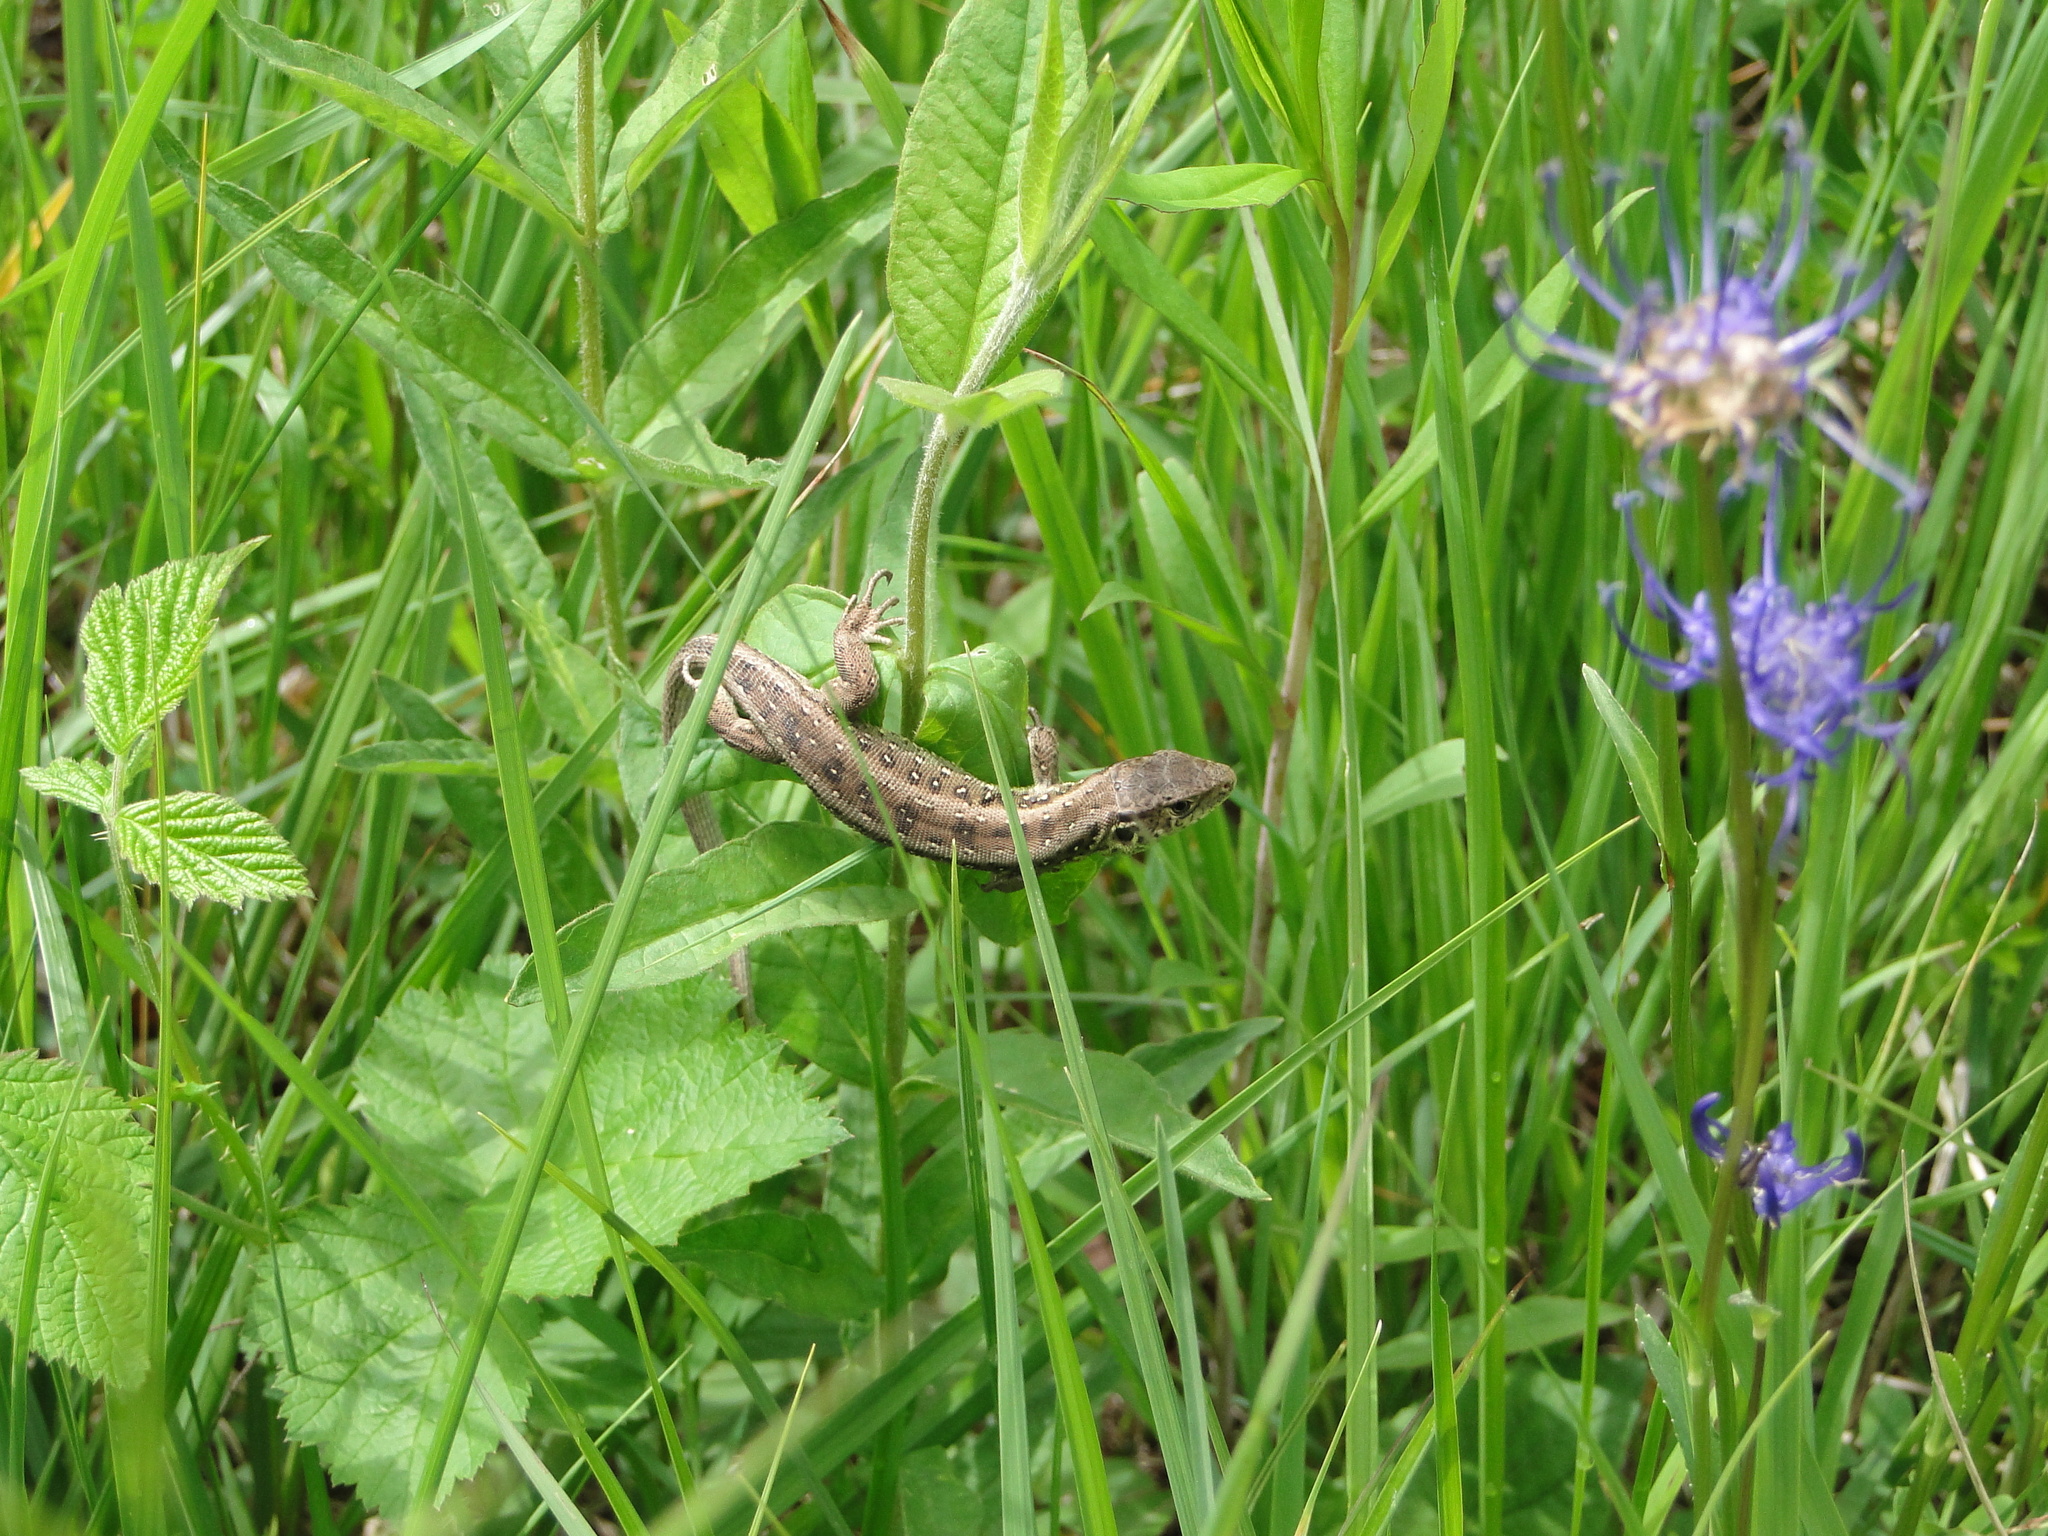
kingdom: Animalia
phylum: Chordata
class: Squamata
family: Lacertidae
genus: Lacerta
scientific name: Lacerta agilis
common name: Sand lizard
